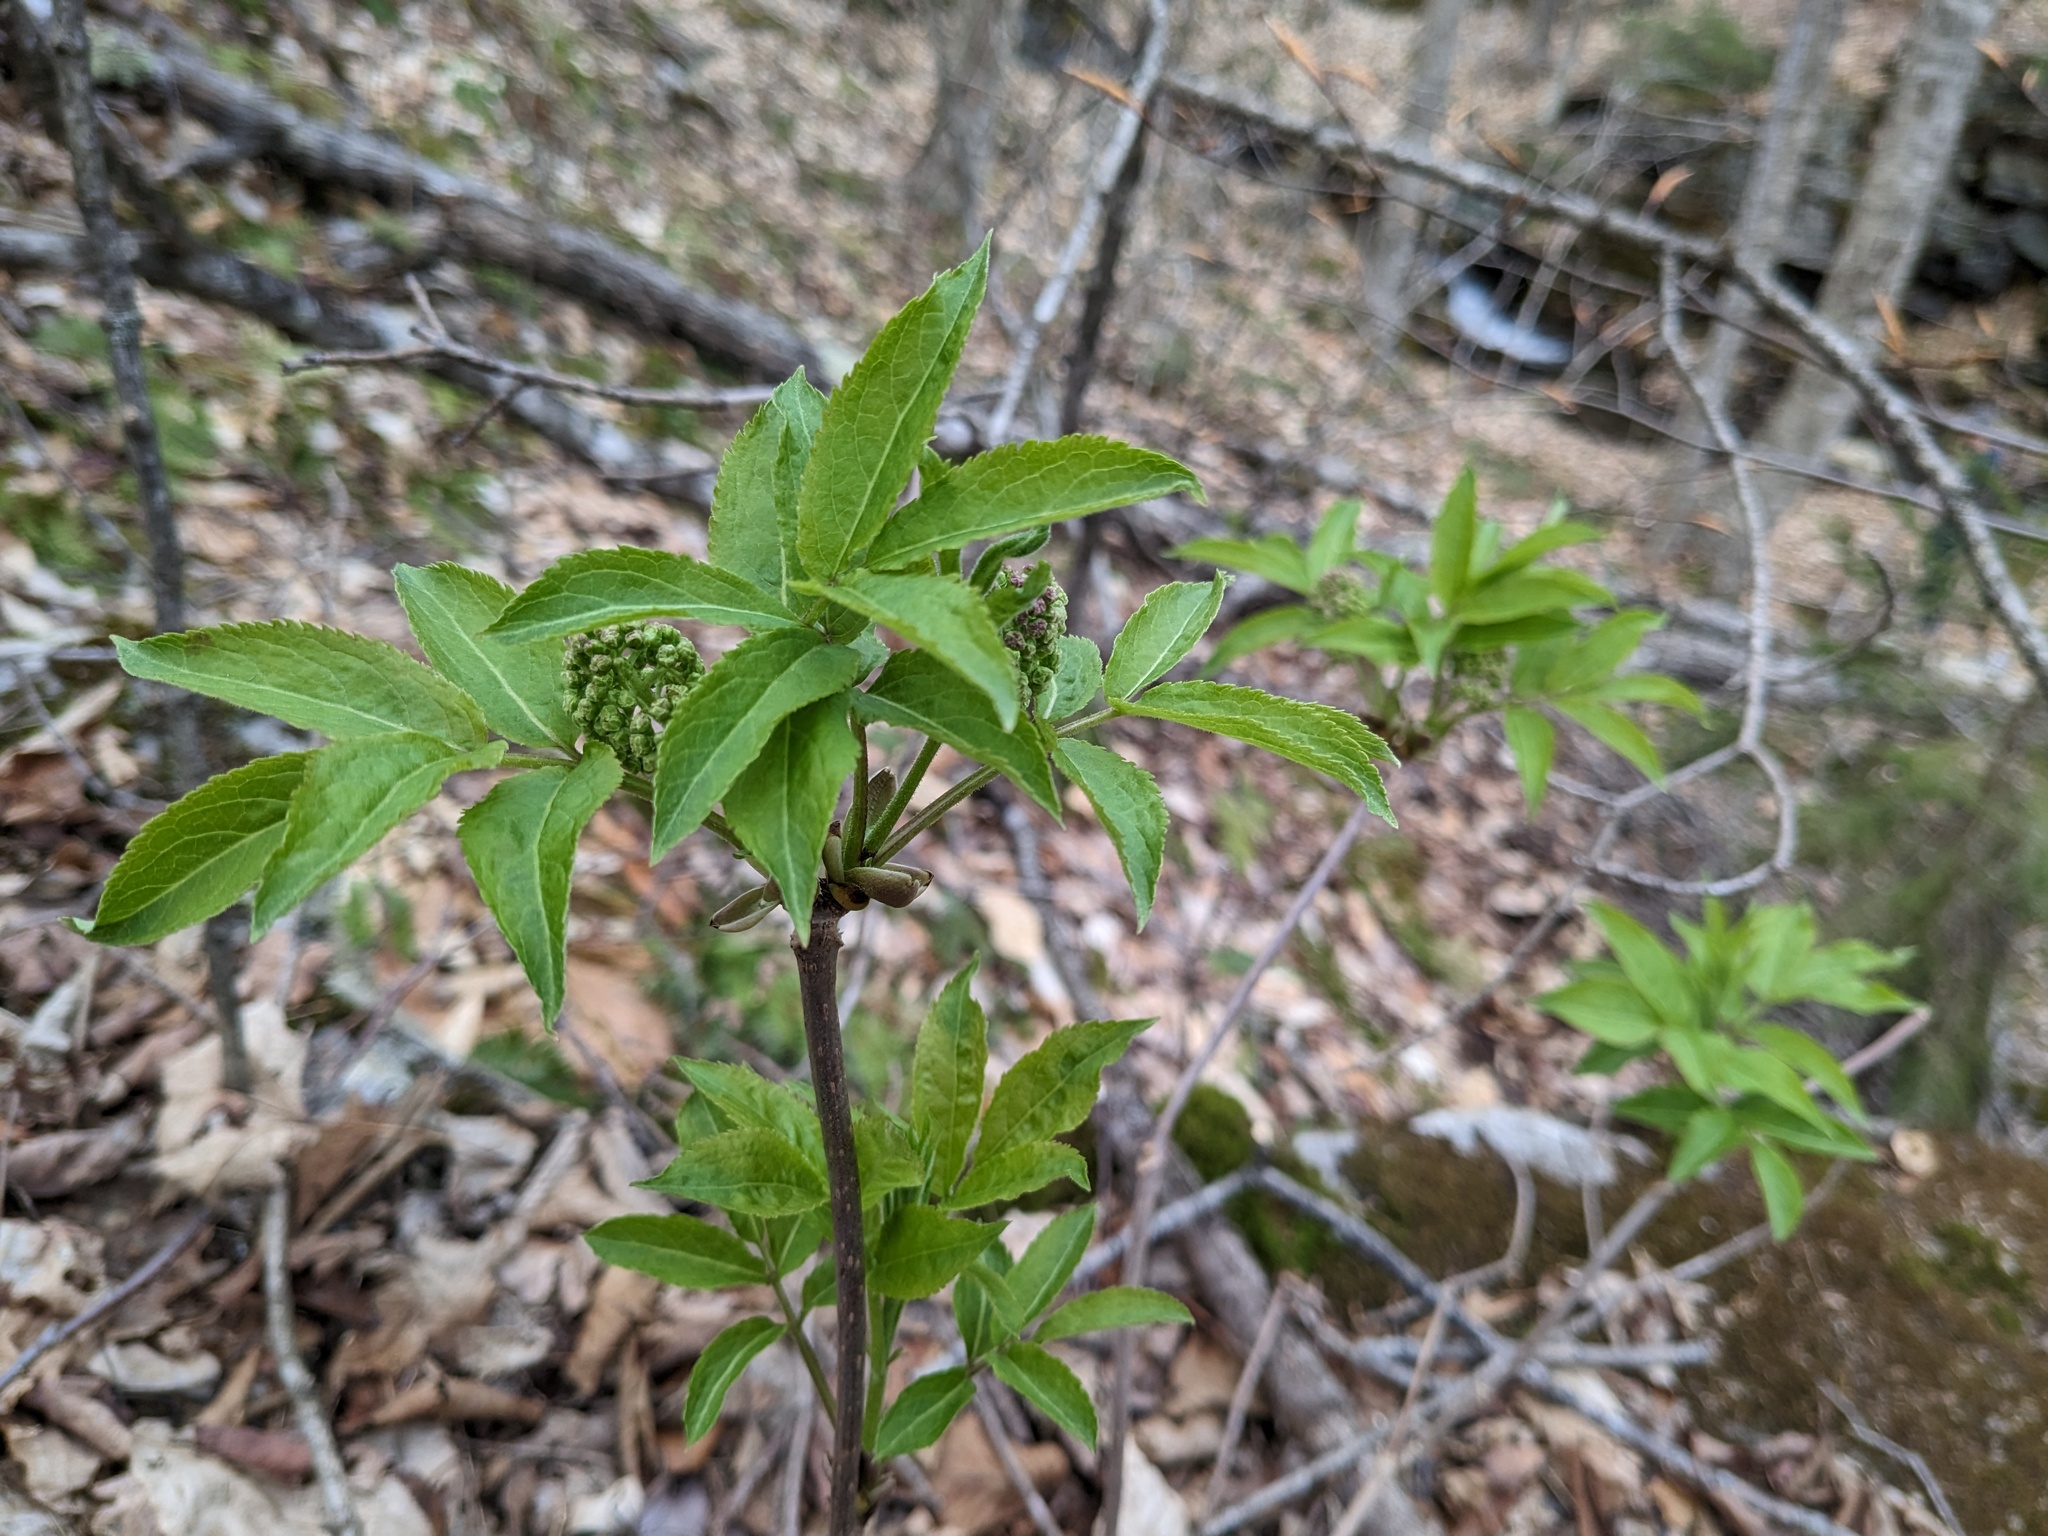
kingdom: Plantae
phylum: Tracheophyta
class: Magnoliopsida
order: Dipsacales
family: Viburnaceae
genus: Sambucus
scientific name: Sambucus racemosa
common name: Red-berried elder
